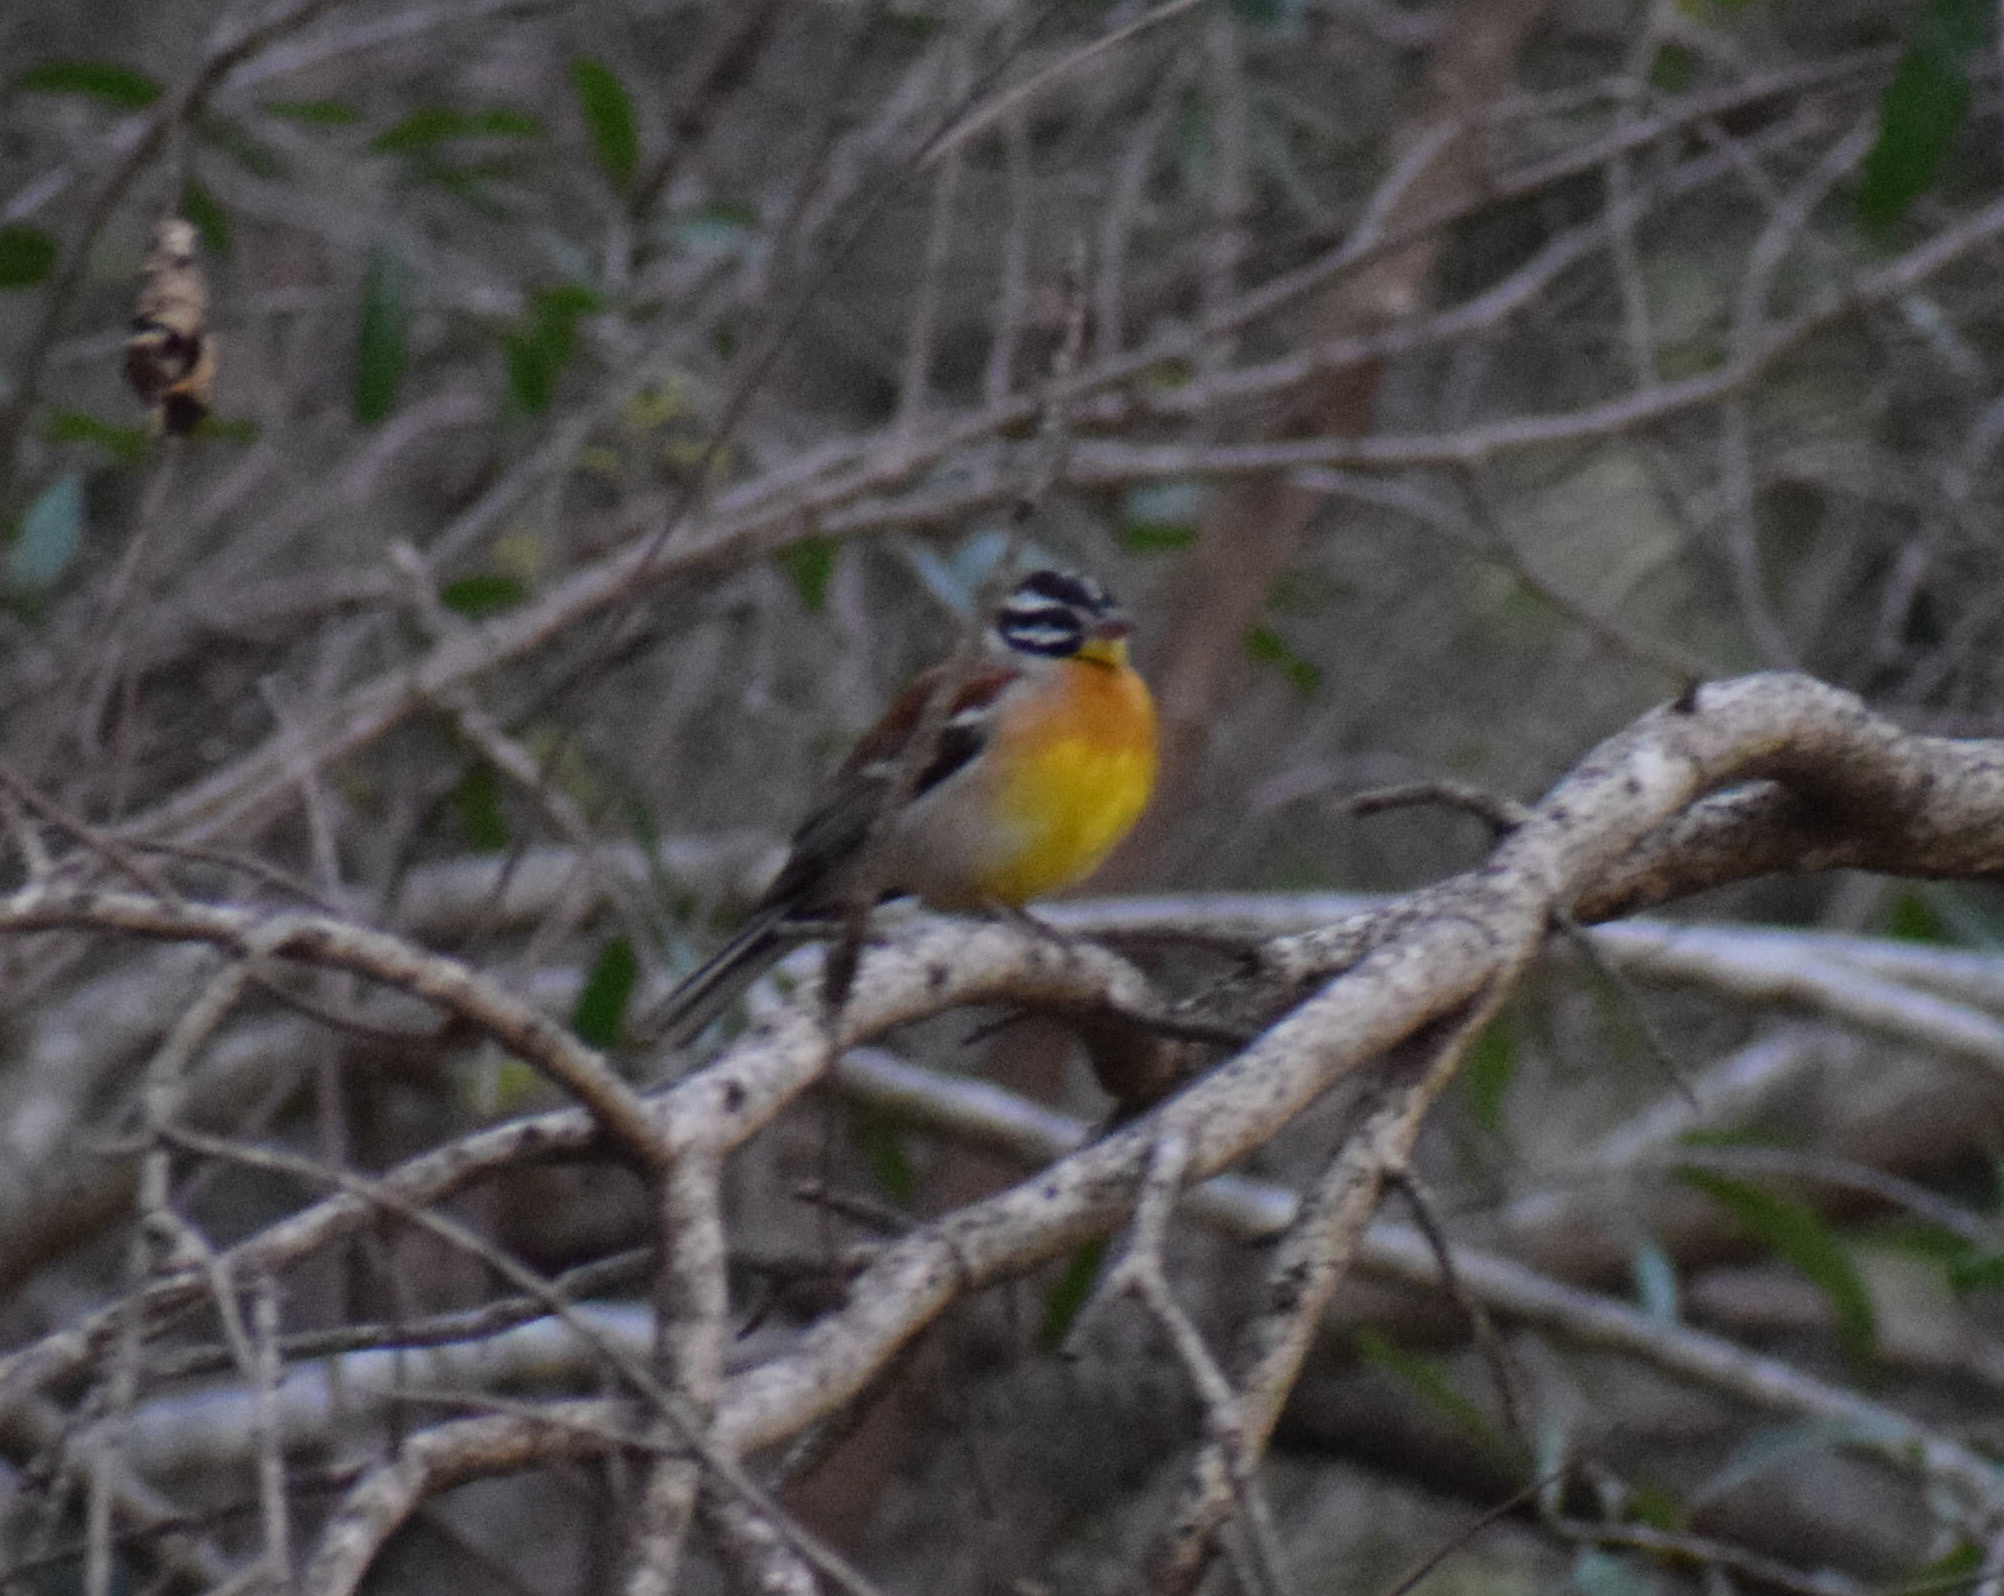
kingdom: Animalia
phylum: Chordata
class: Aves
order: Passeriformes
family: Emberizidae
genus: Emberiza
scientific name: Emberiza flaviventris
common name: Golden-breasted bunting
